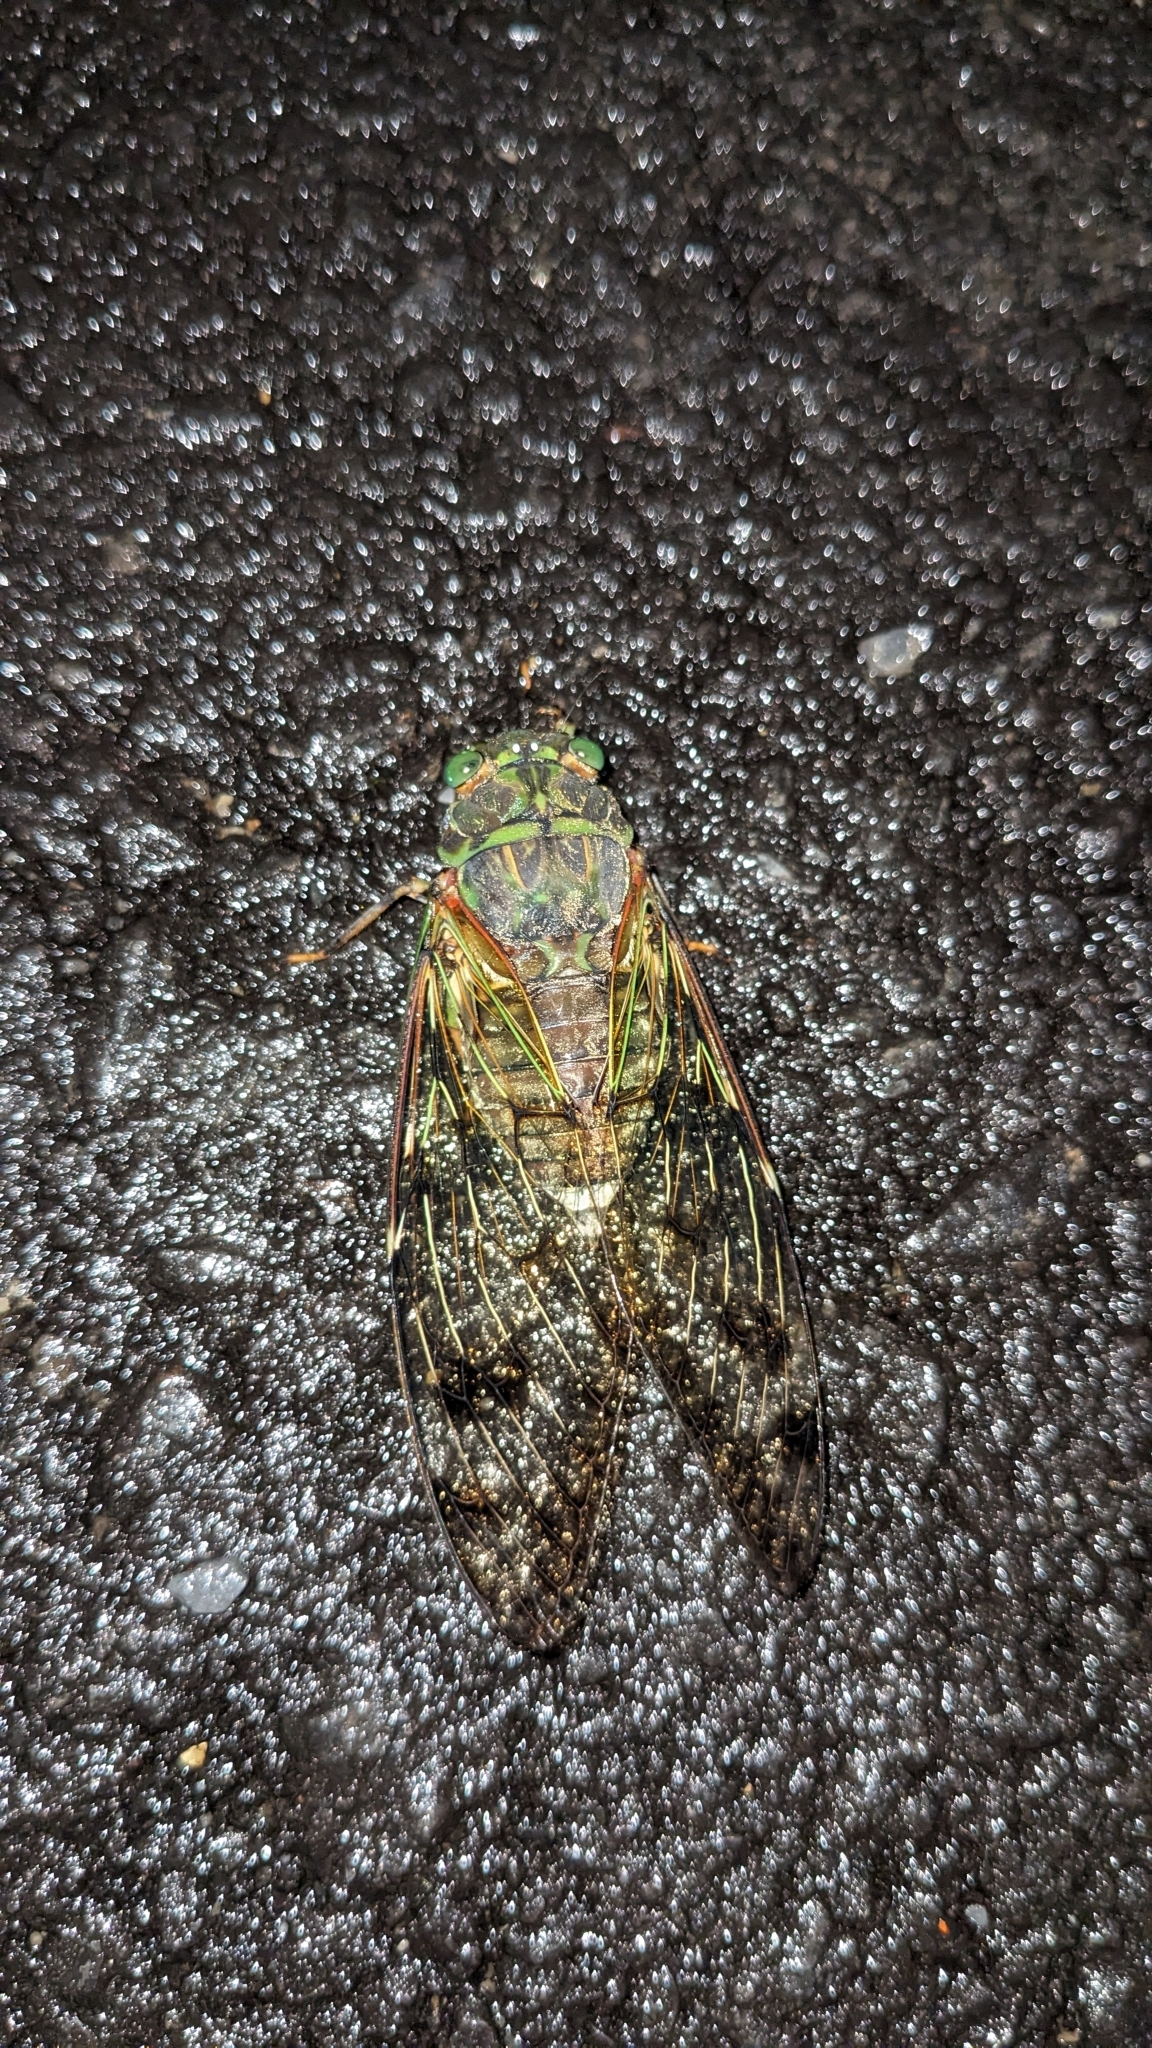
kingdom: Animalia
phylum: Arthropoda
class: Insecta
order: Hemiptera
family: Cicadidae
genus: Pomponia
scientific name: Pomponia yayeyamana
